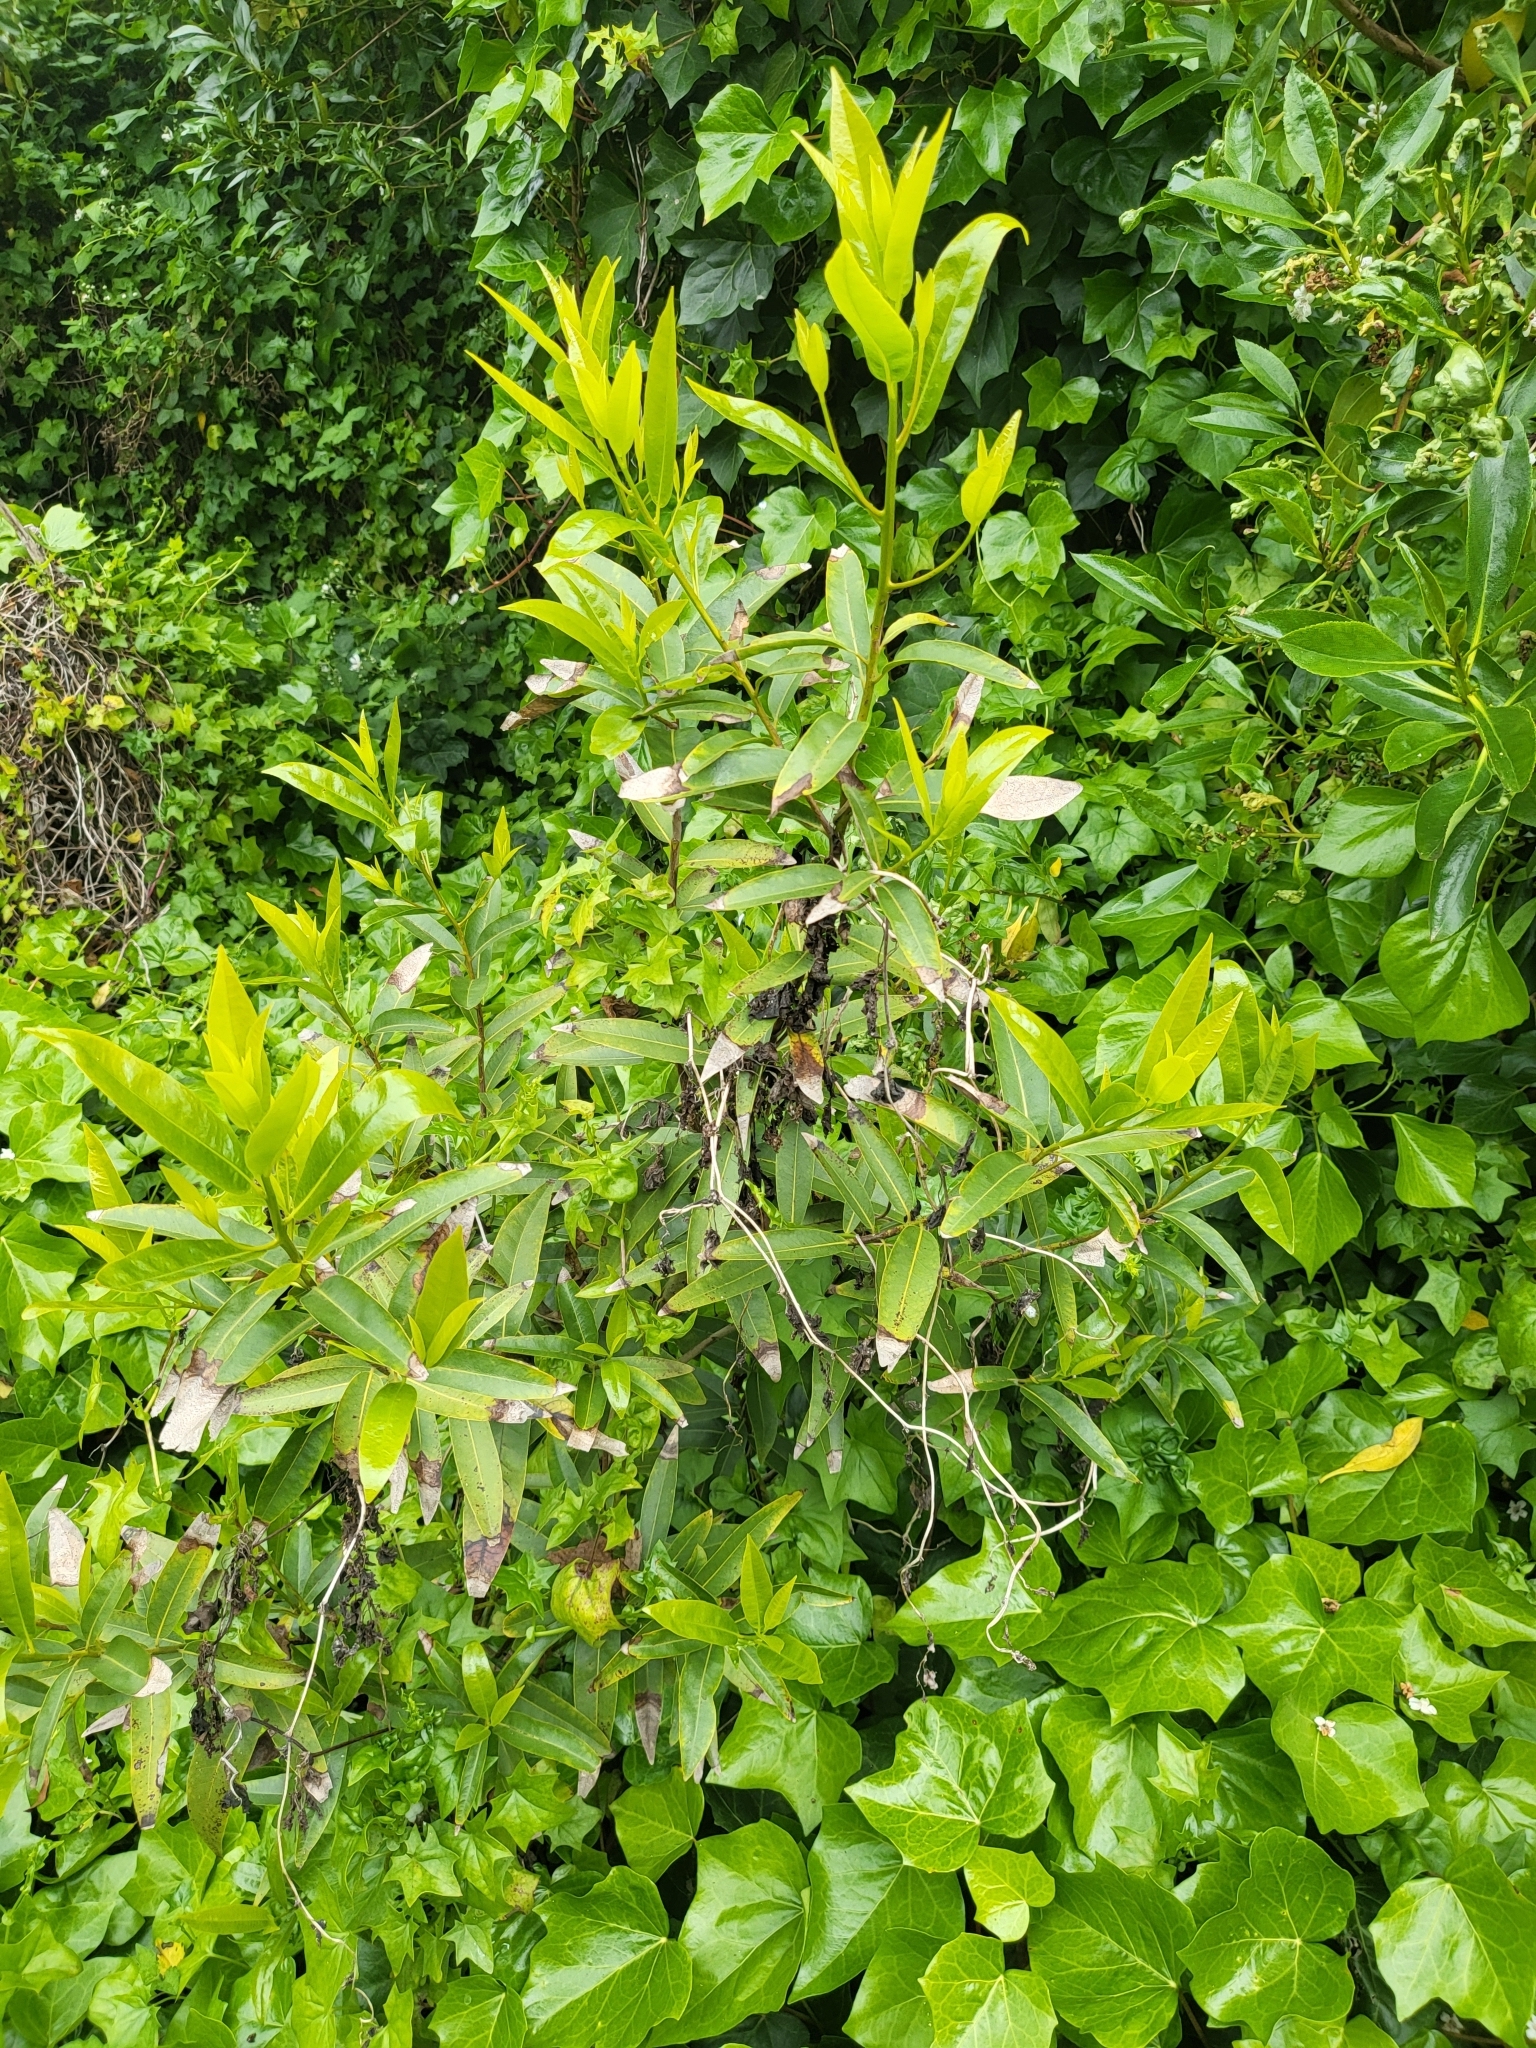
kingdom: Plantae
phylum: Tracheophyta
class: Magnoliopsida
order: Laurales
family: Lauraceae
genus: Umbellularia
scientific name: Umbellularia californica
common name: California bay
